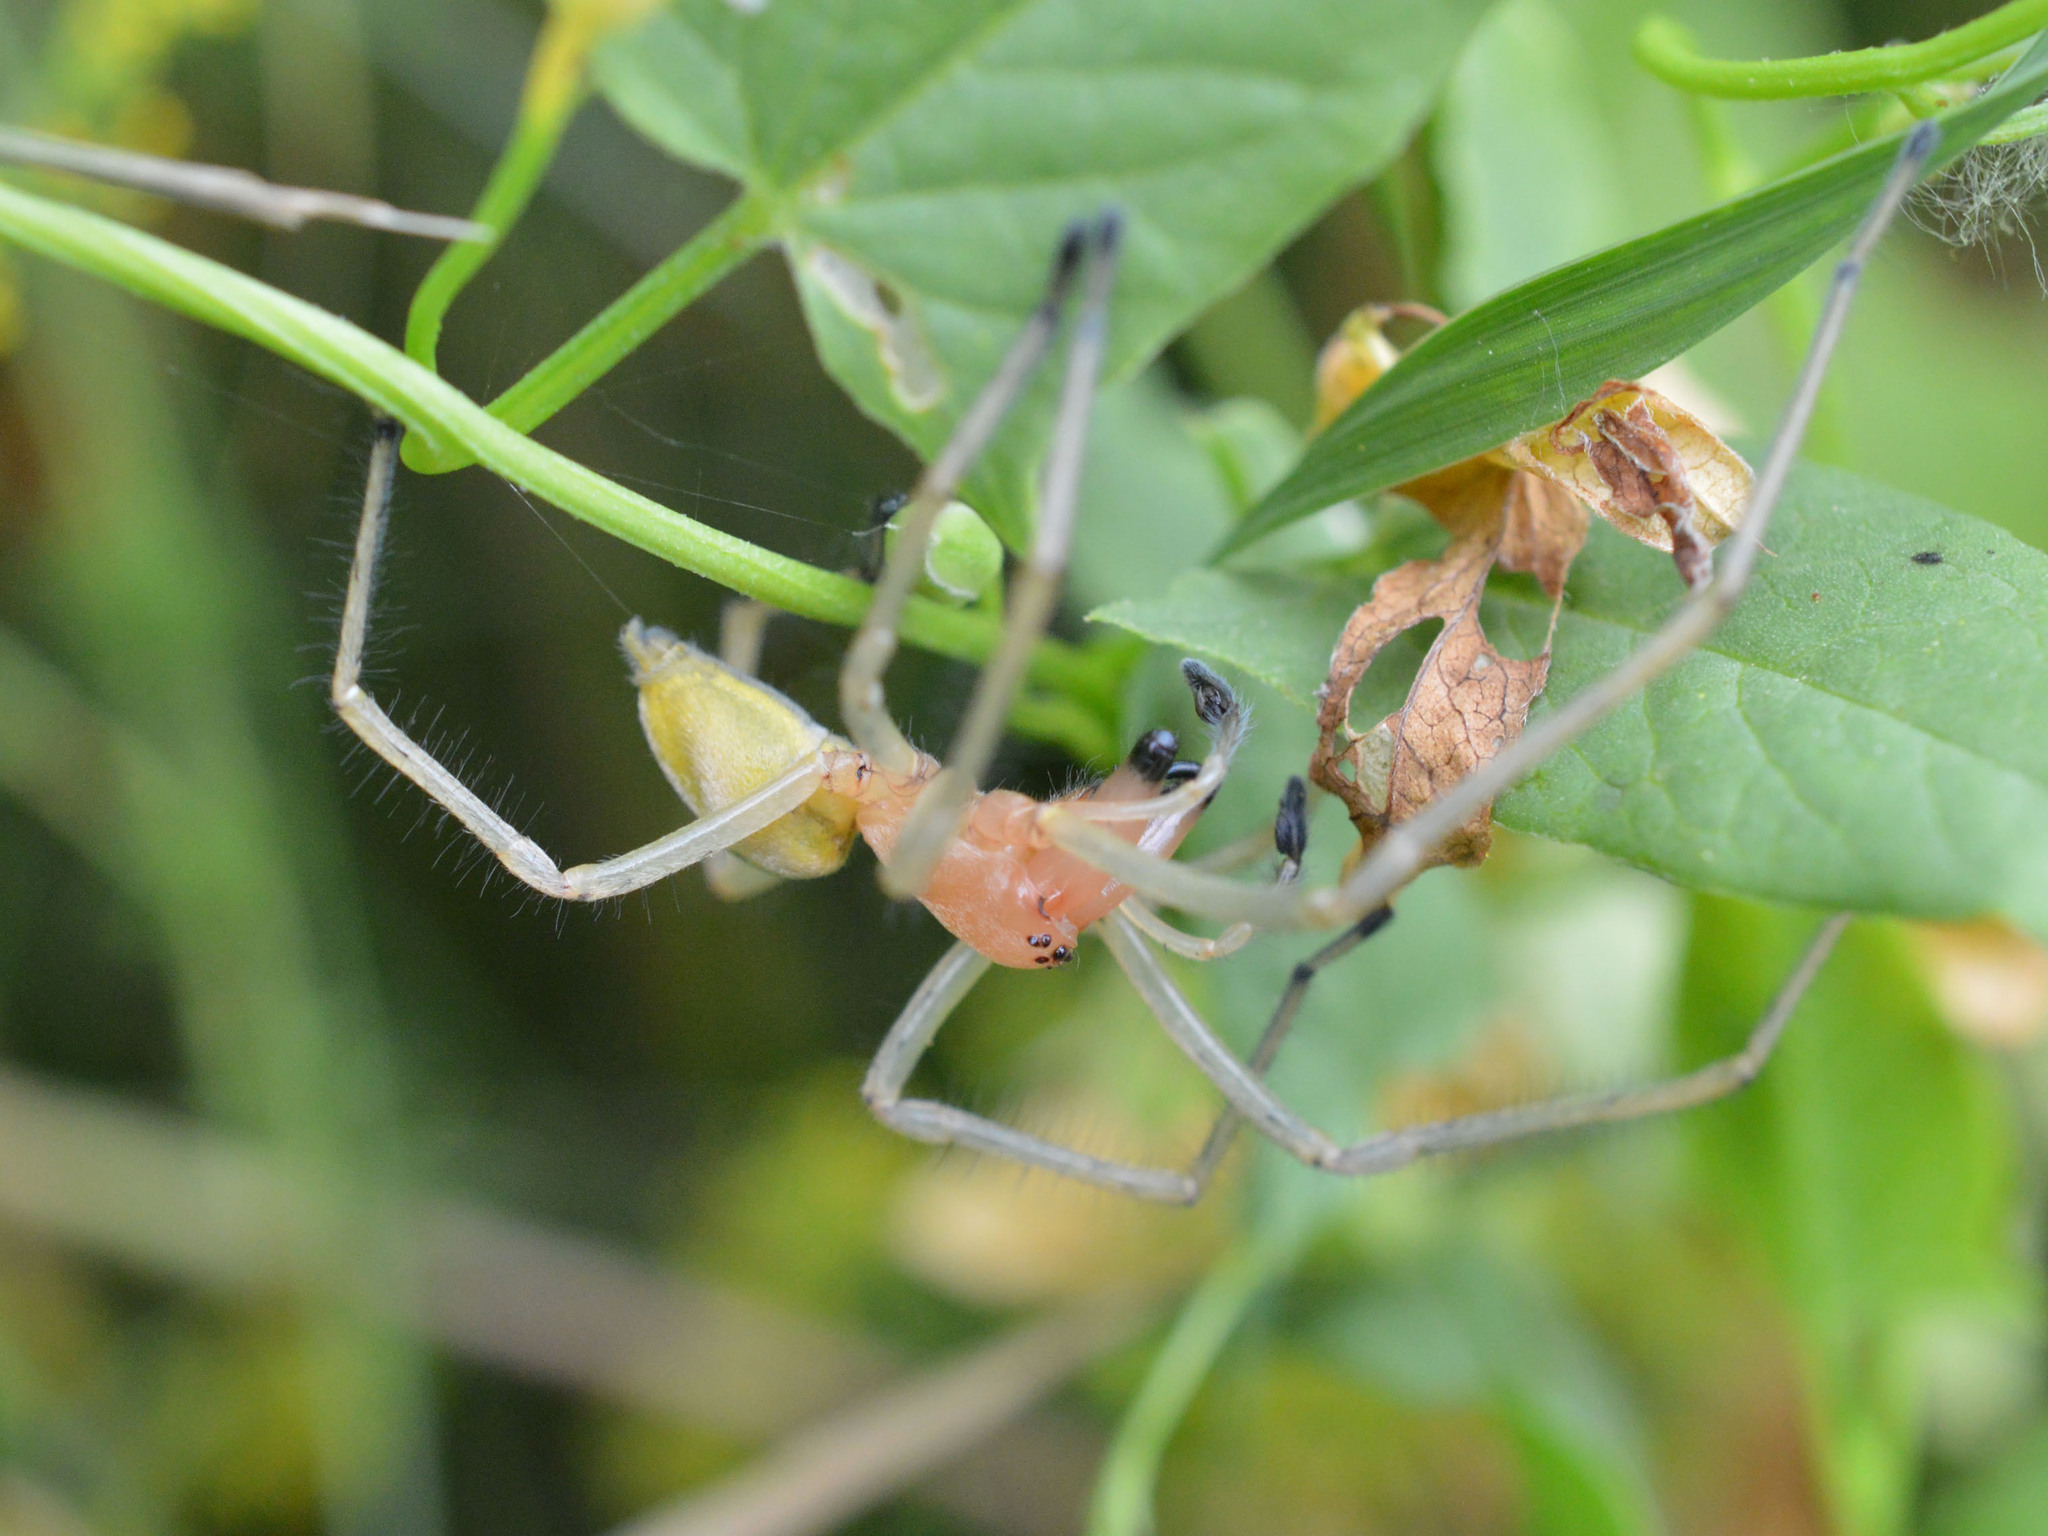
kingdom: Animalia
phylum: Arthropoda
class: Arachnida
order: Araneae
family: Cheiracanthiidae
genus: Cheiracanthium
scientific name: Cheiracanthium punctorium
